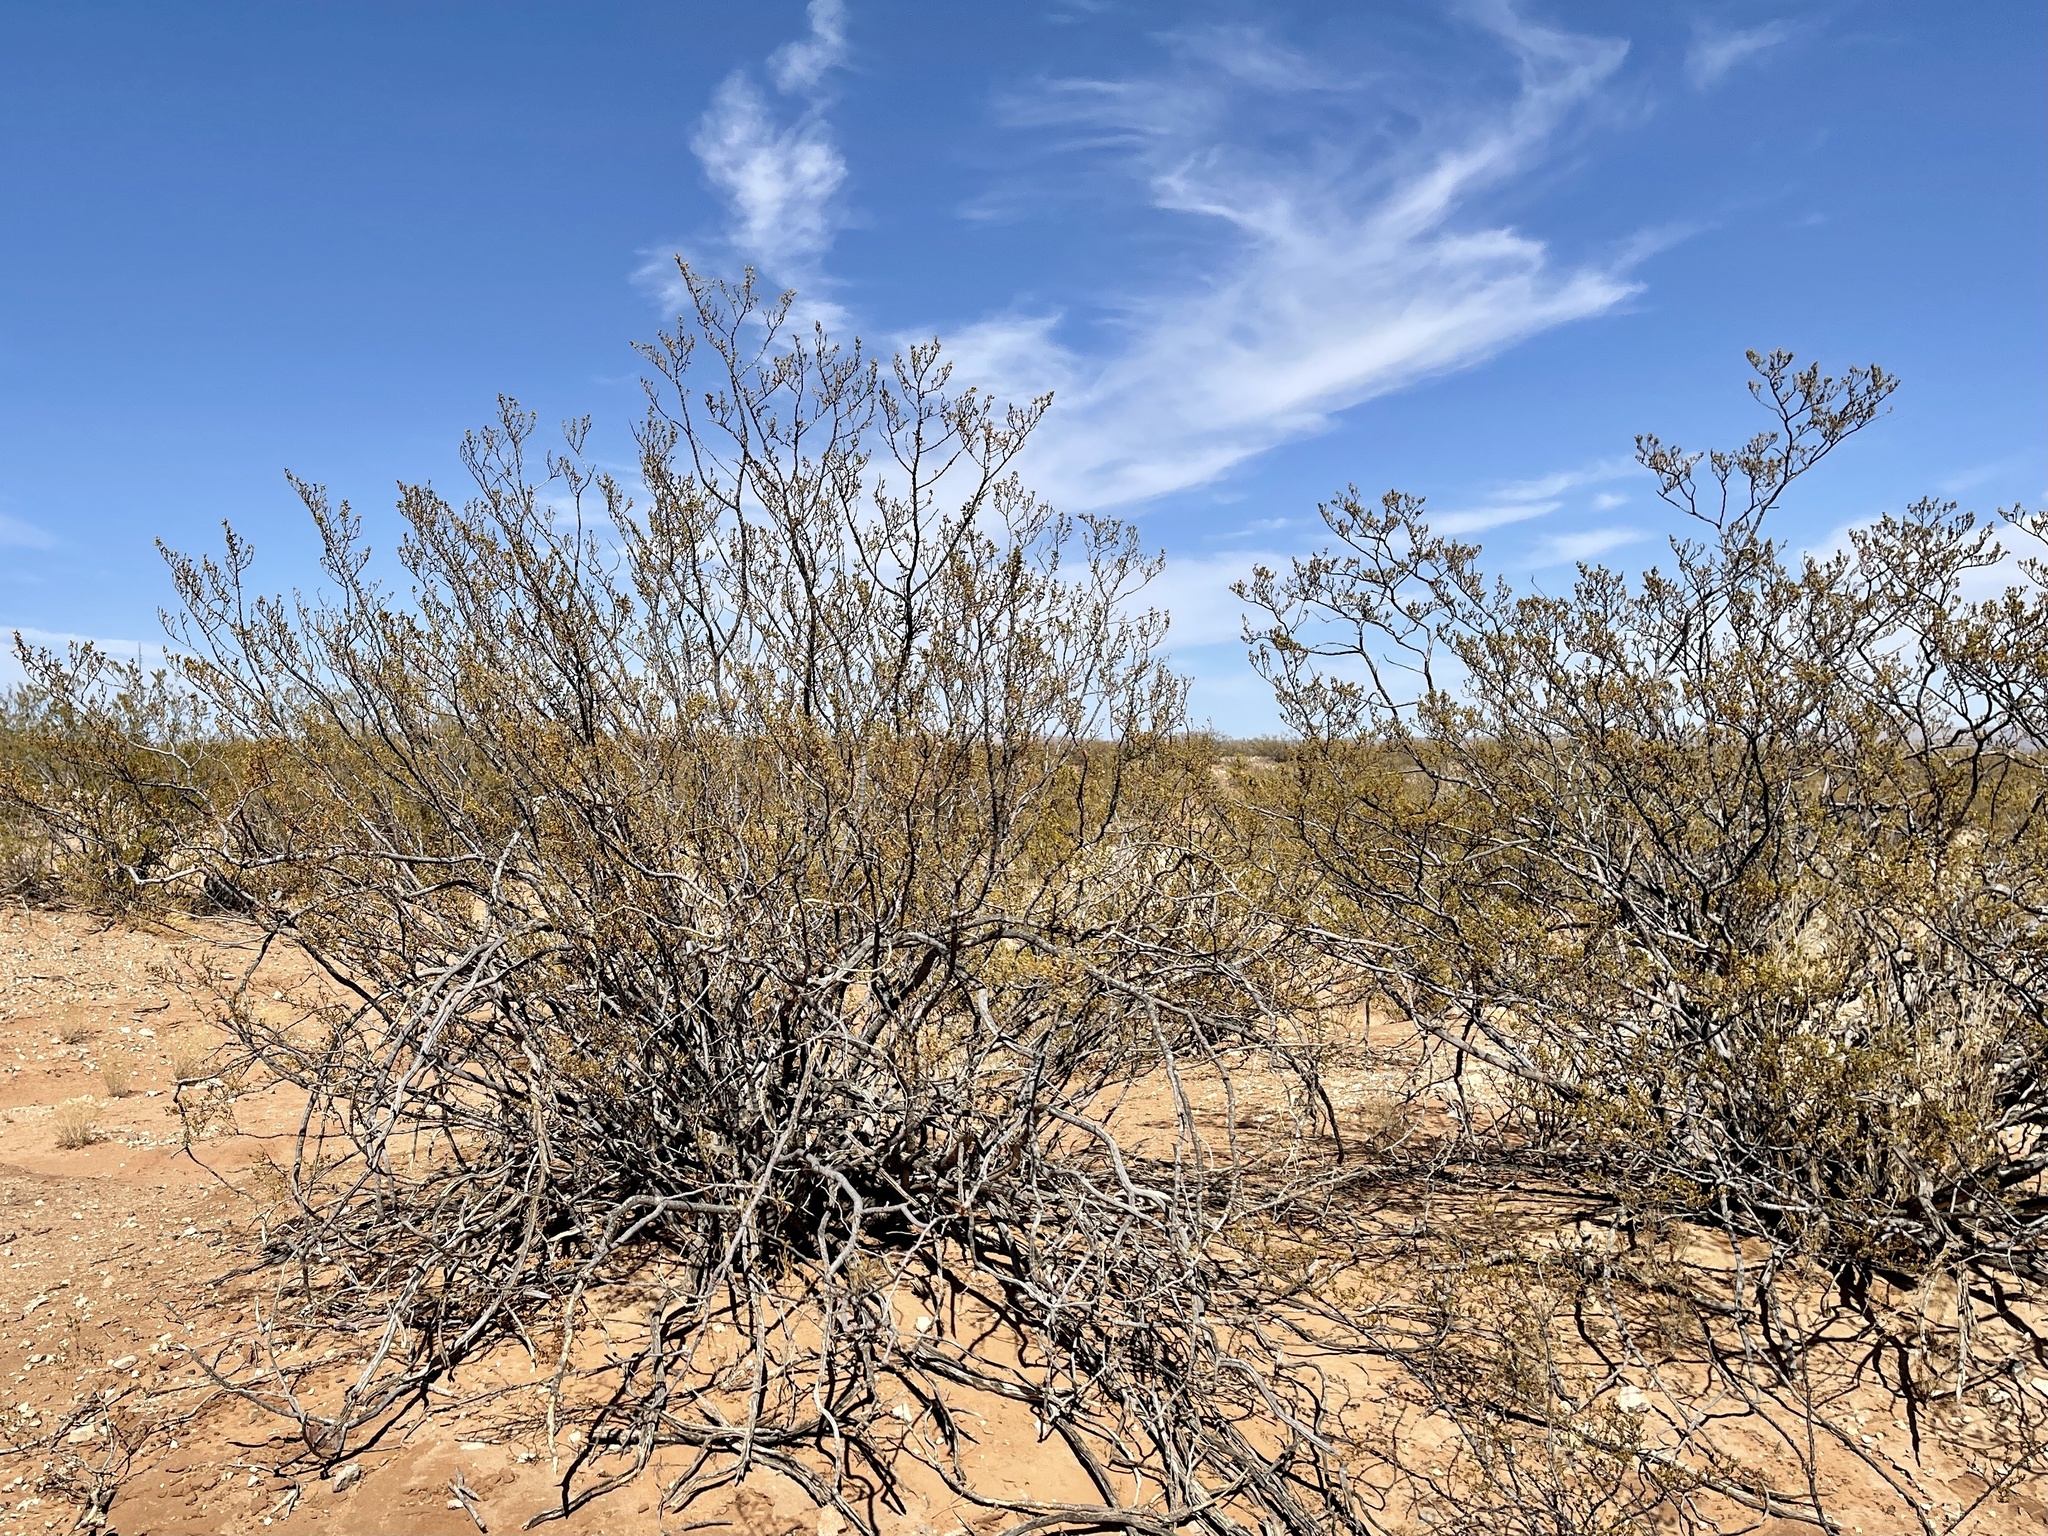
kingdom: Plantae
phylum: Tracheophyta
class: Magnoliopsida
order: Zygophyllales
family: Zygophyllaceae
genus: Larrea
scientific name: Larrea tridentata
